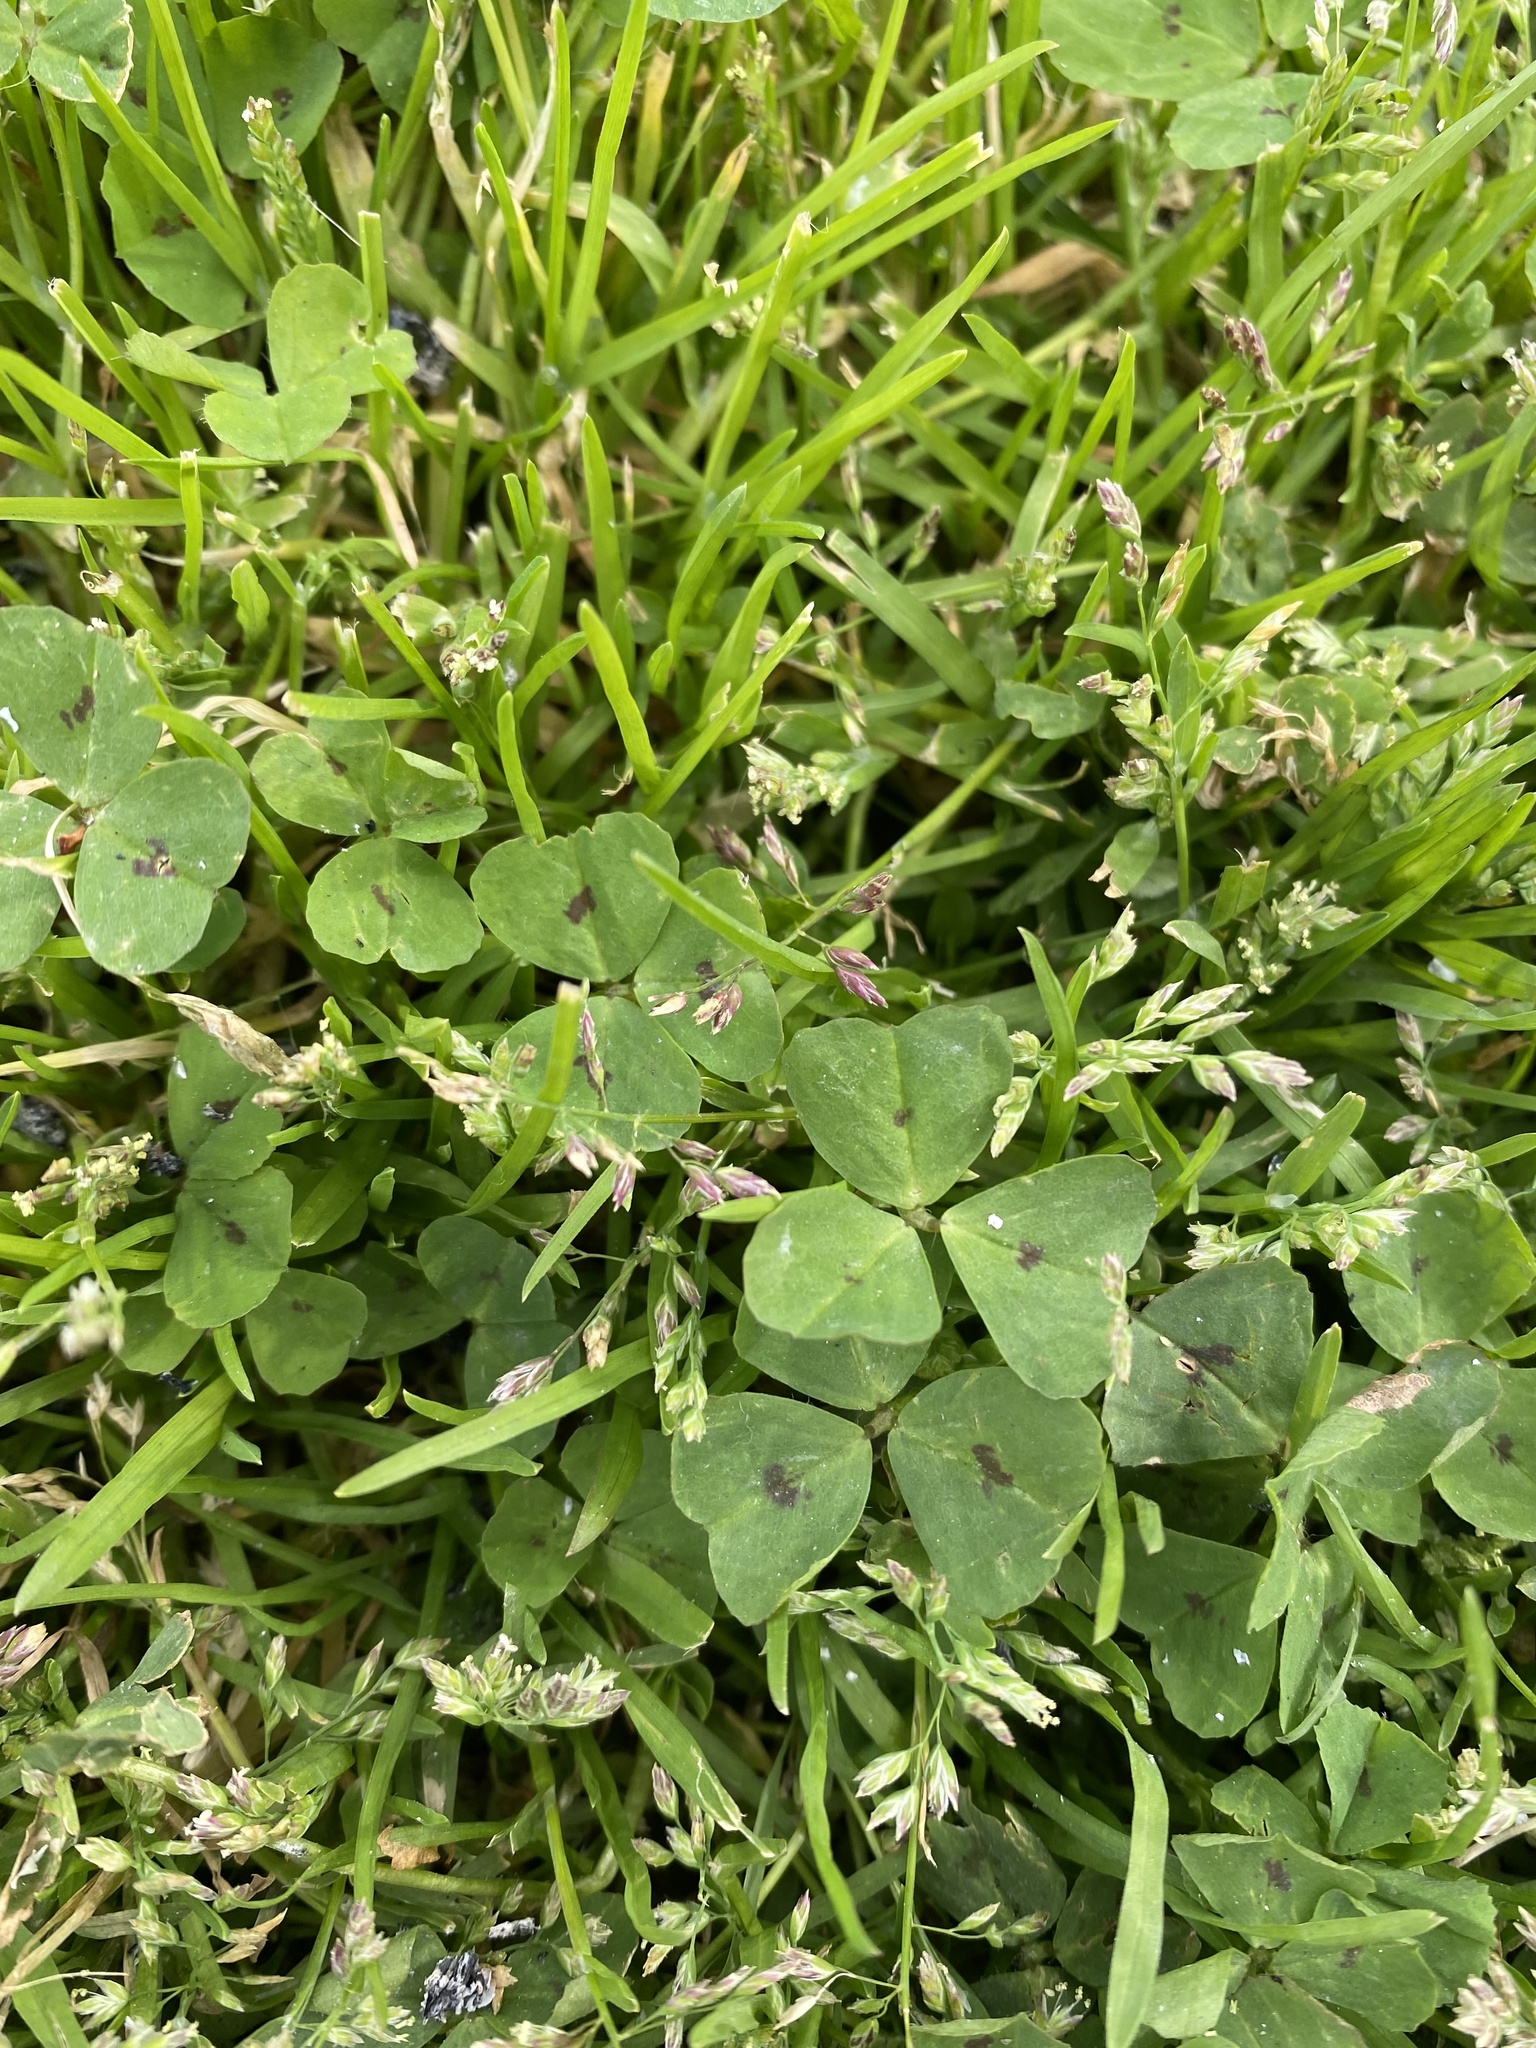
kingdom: Plantae
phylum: Tracheophyta
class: Magnoliopsida
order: Fabales
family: Fabaceae
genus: Medicago
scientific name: Medicago arabica
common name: Spotted medick
